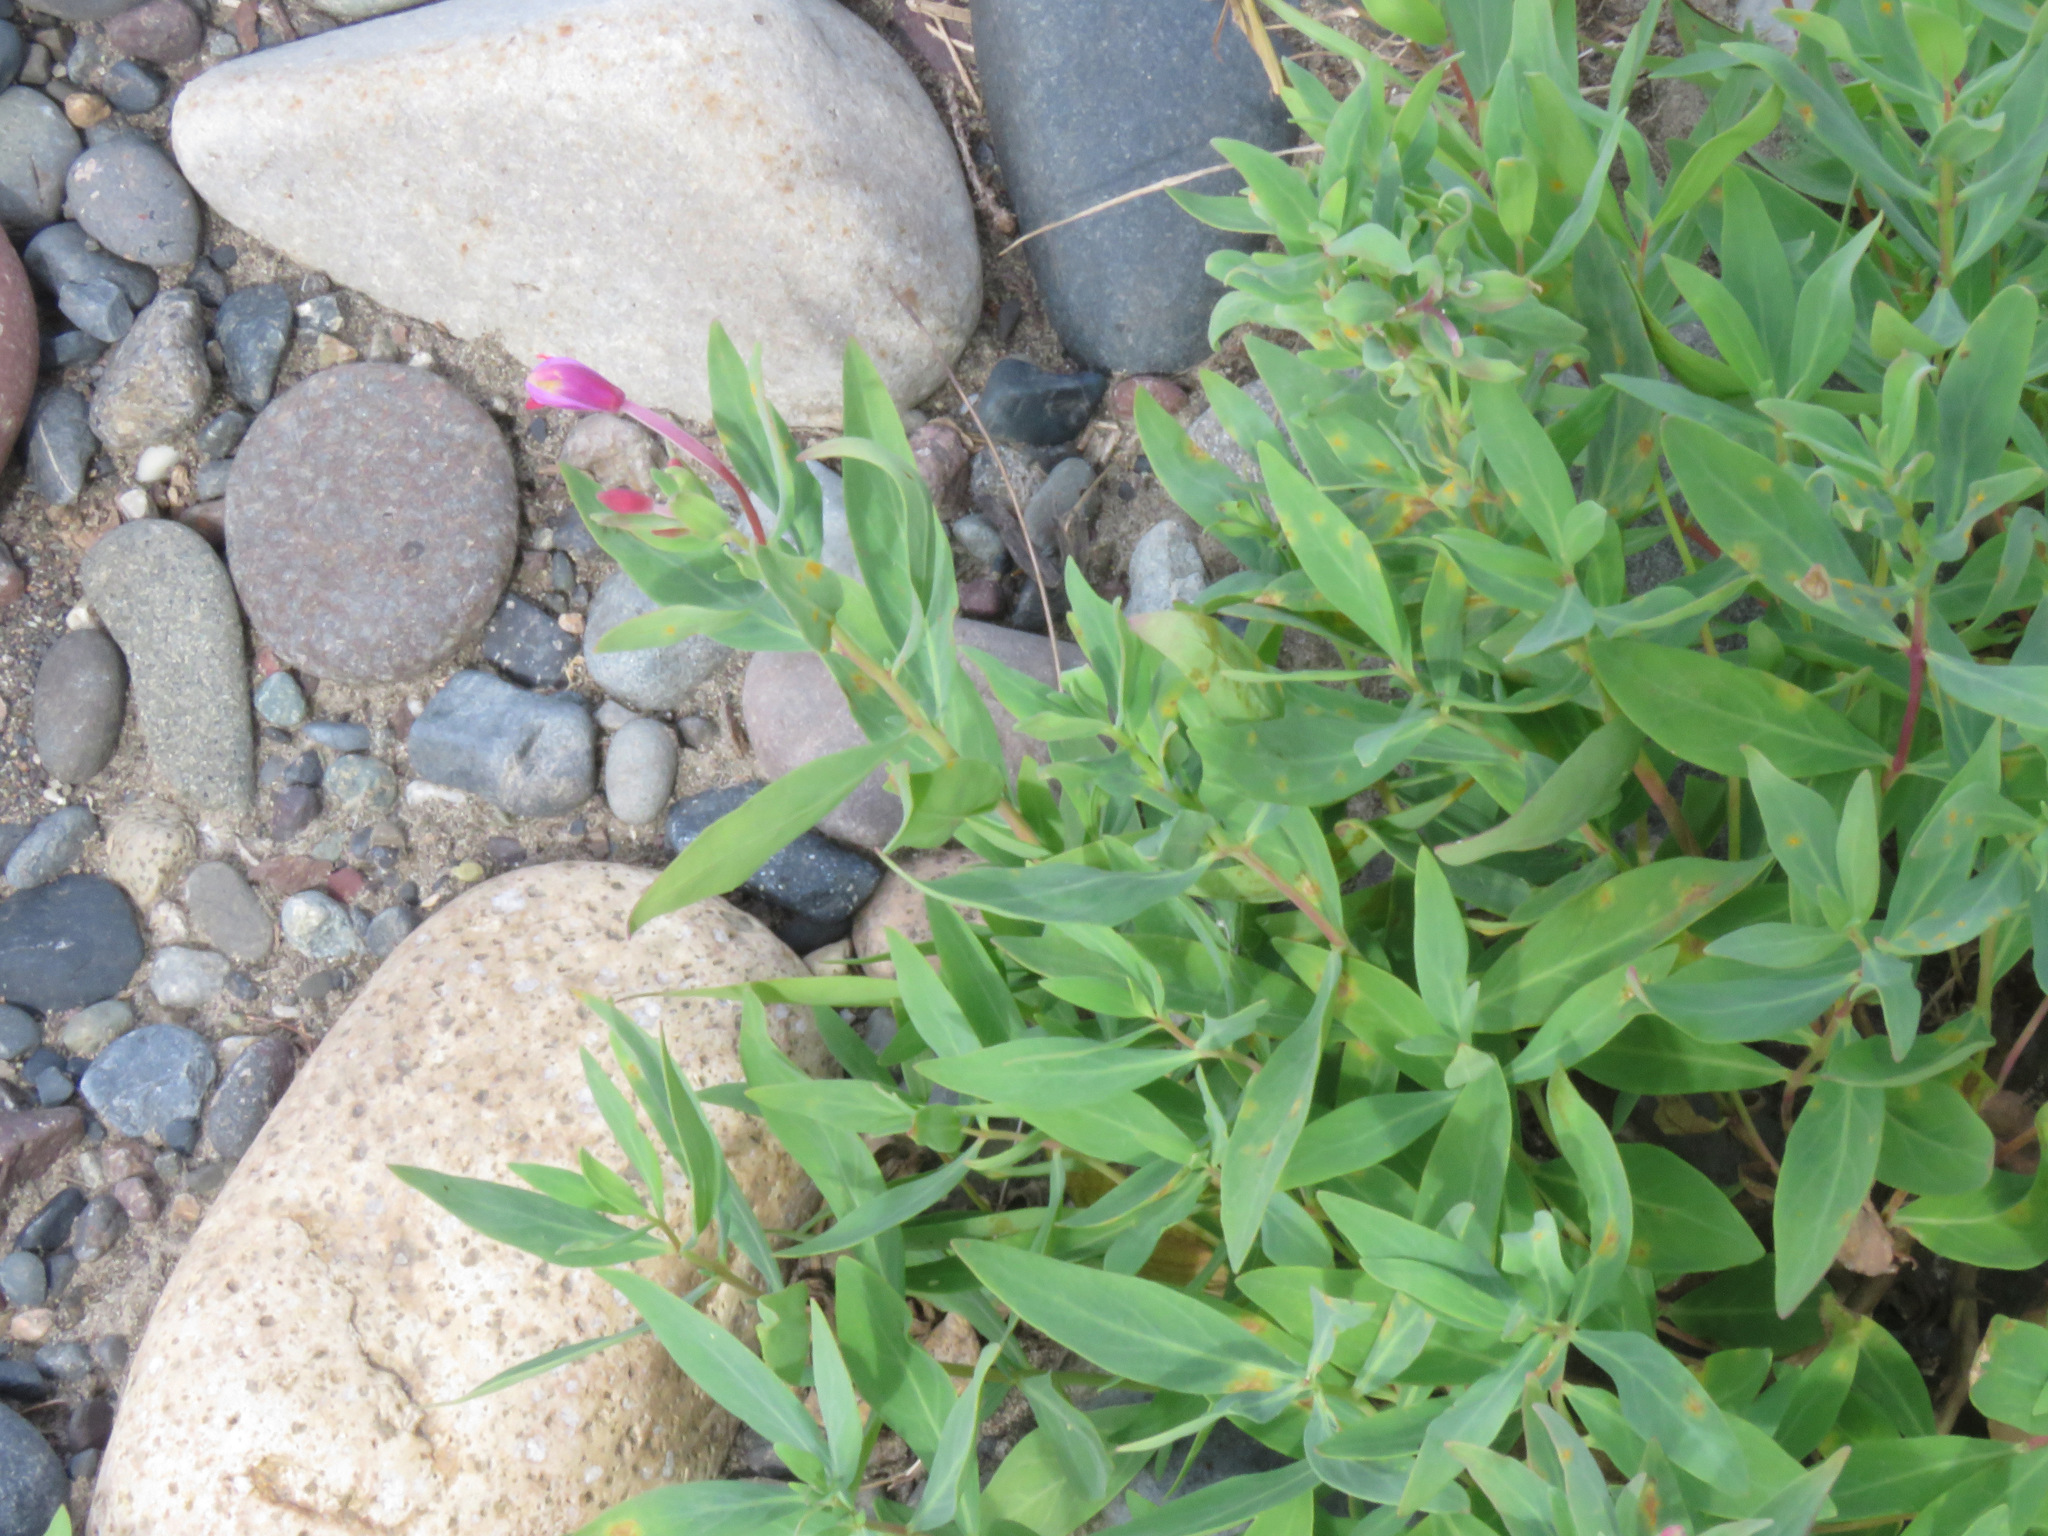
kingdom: Plantae
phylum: Tracheophyta
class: Magnoliopsida
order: Myrtales
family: Onagraceae
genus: Chamaenerion
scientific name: Chamaenerion latifolium
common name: Dwarf fireweed
